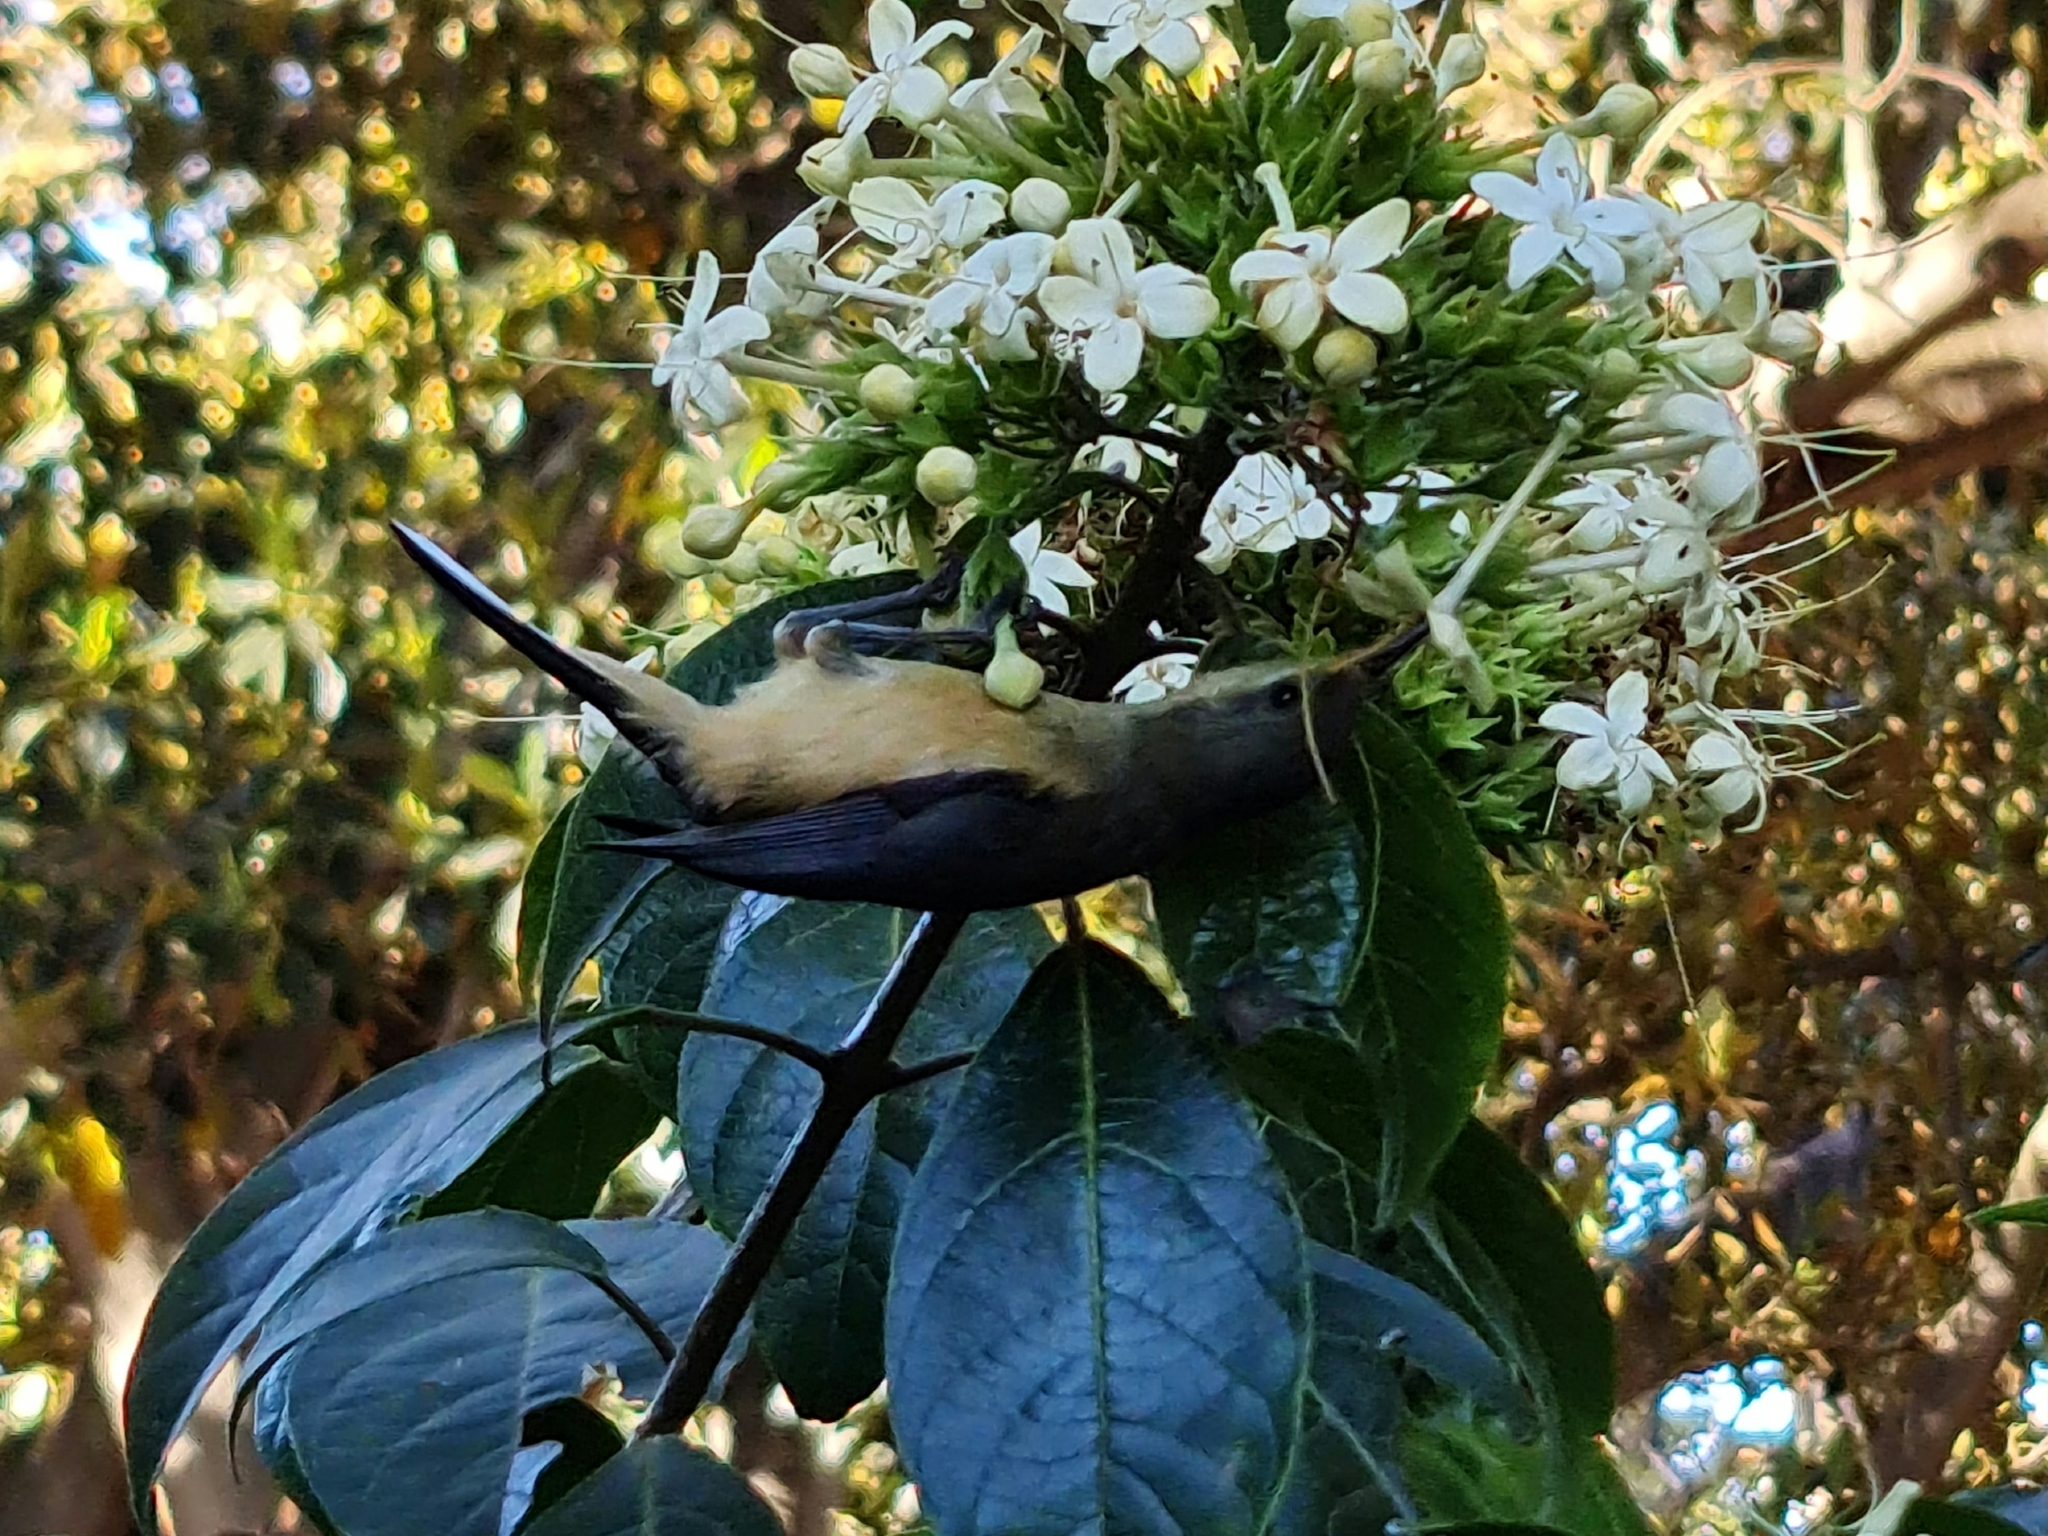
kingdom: Animalia
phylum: Chordata
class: Aves
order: Passeriformes
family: Meliphagidae
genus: Acanthorhynchus
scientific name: Acanthorhynchus tenuirostris
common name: Eastern spinebill
